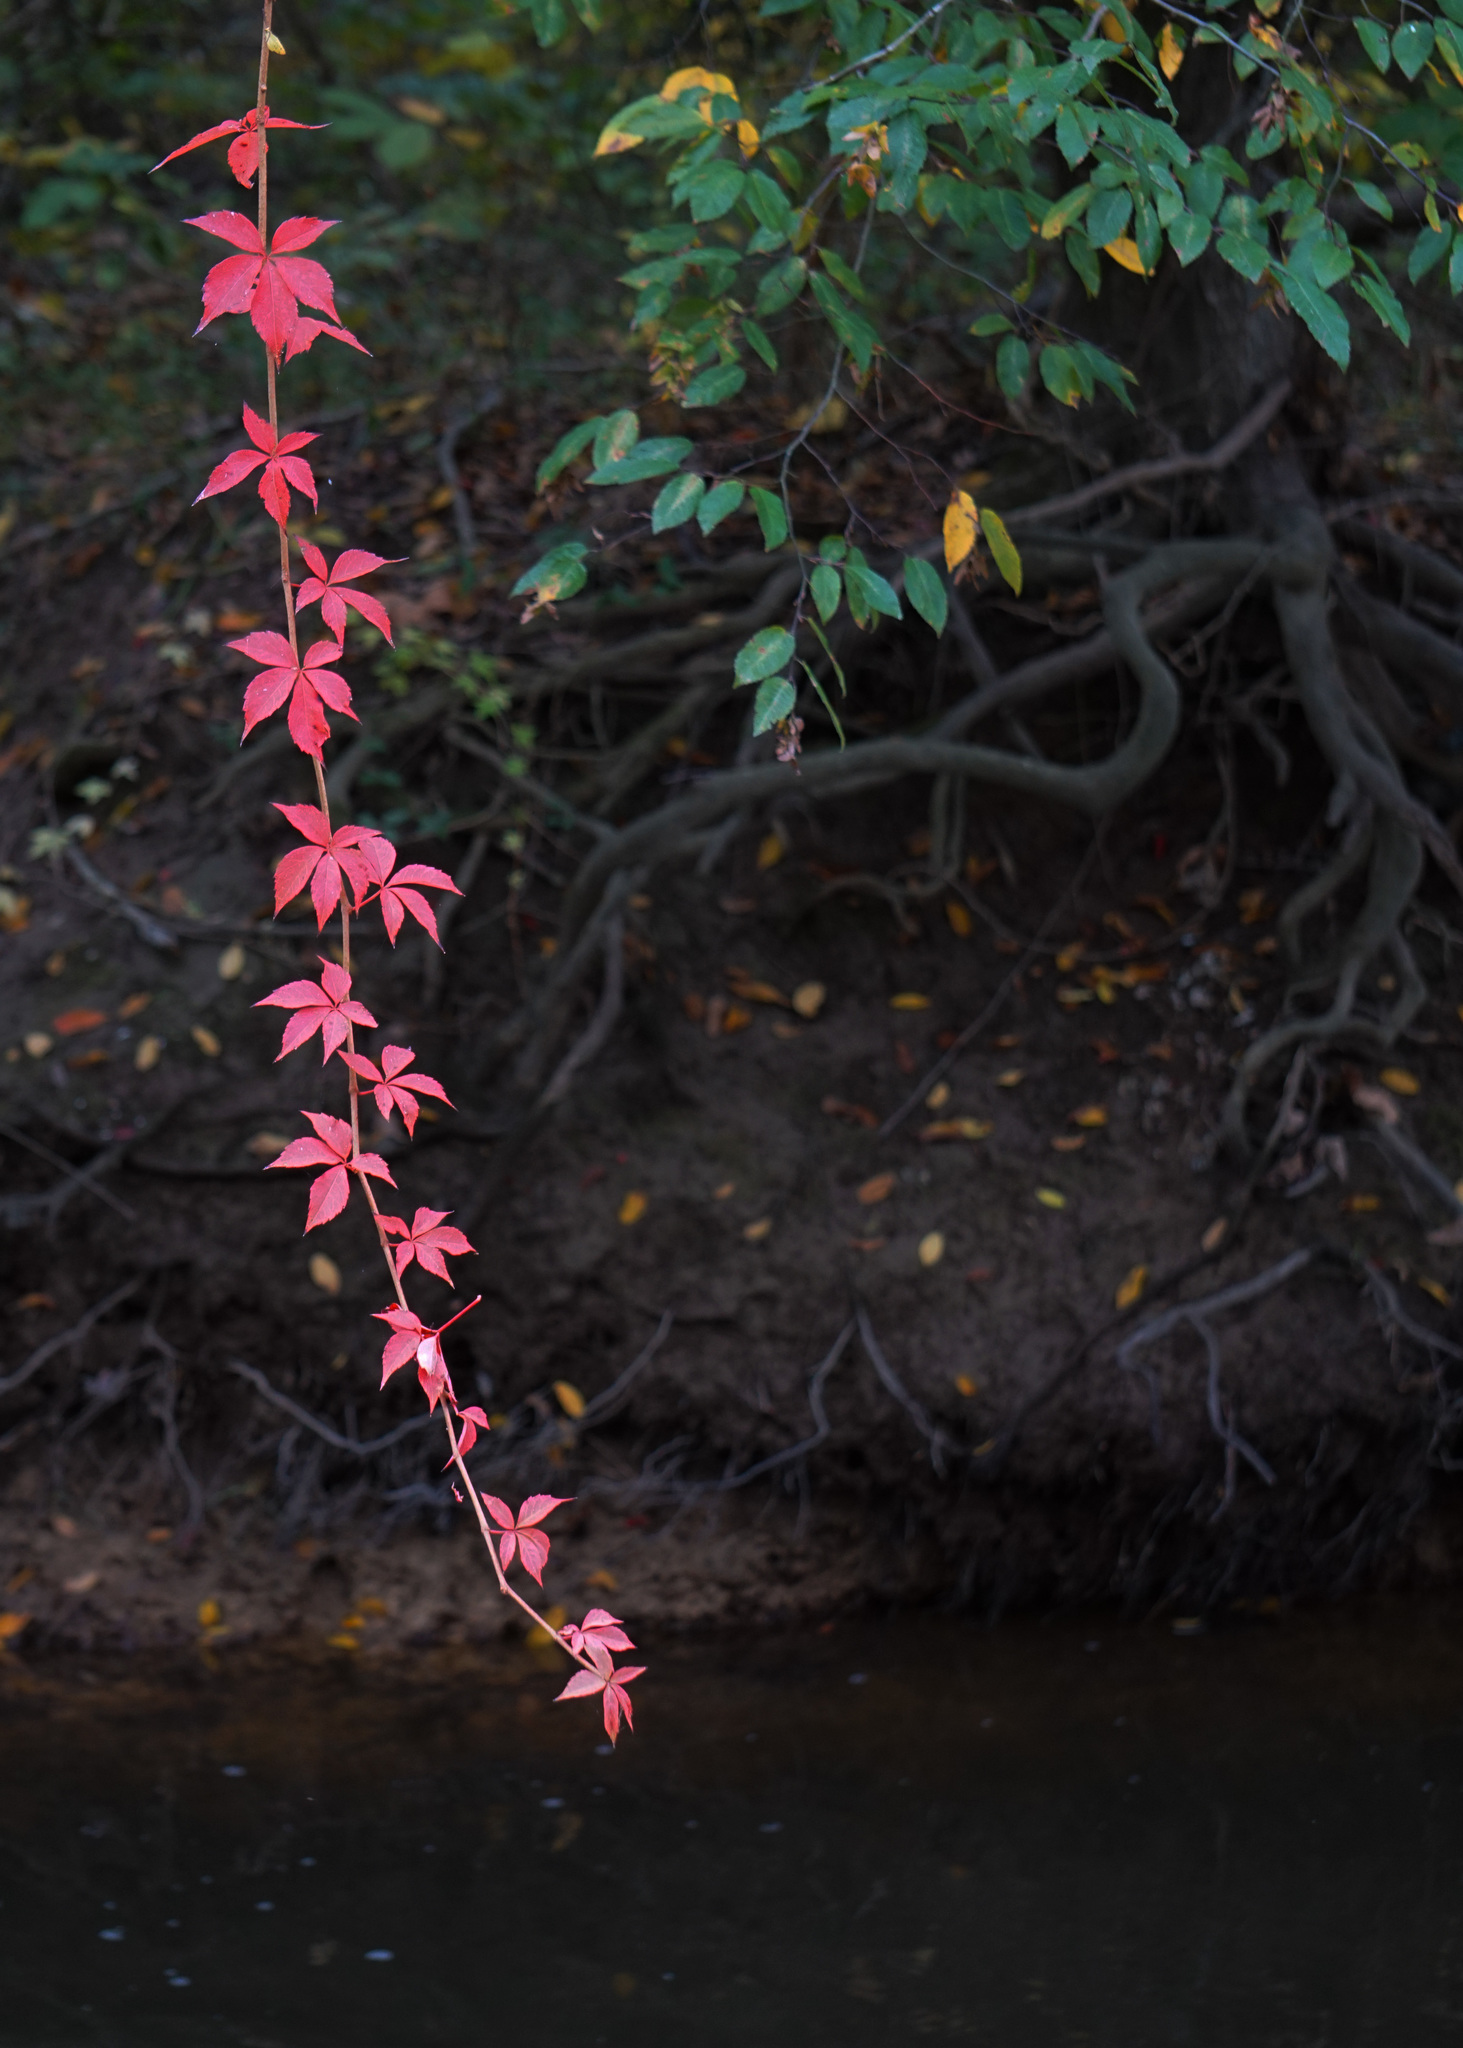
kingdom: Plantae
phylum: Tracheophyta
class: Magnoliopsida
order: Vitales
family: Vitaceae
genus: Parthenocissus
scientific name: Parthenocissus quinquefolia
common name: Virginia-creeper
